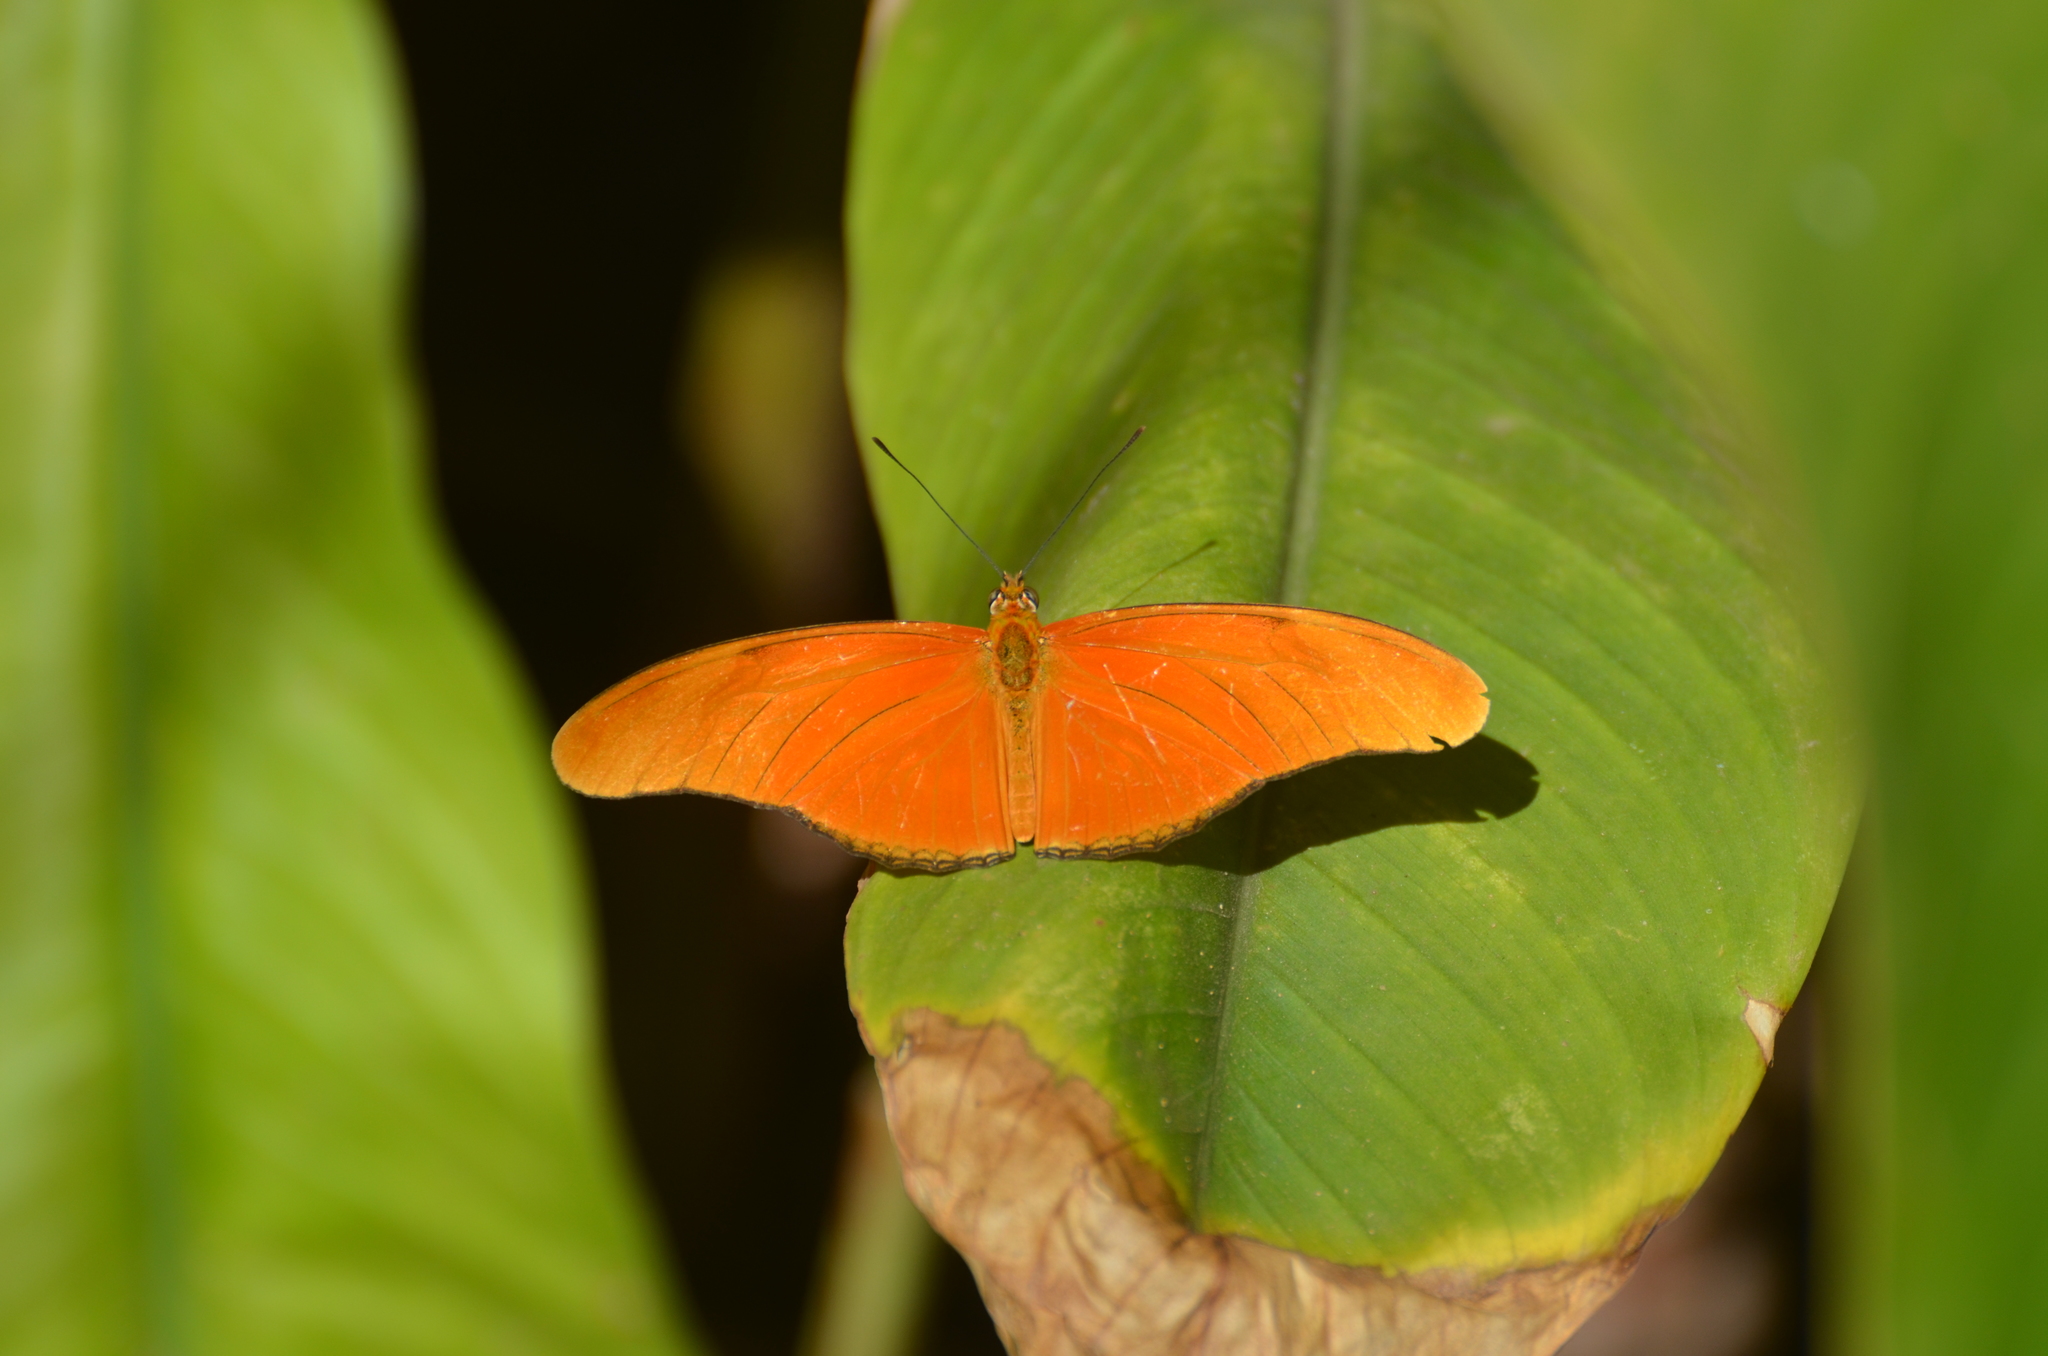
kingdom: Animalia
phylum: Arthropoda
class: Insecta
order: Lepidoptera
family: Nymphalidae
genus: Dryas
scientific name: Dryas iulia
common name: Flambeau
